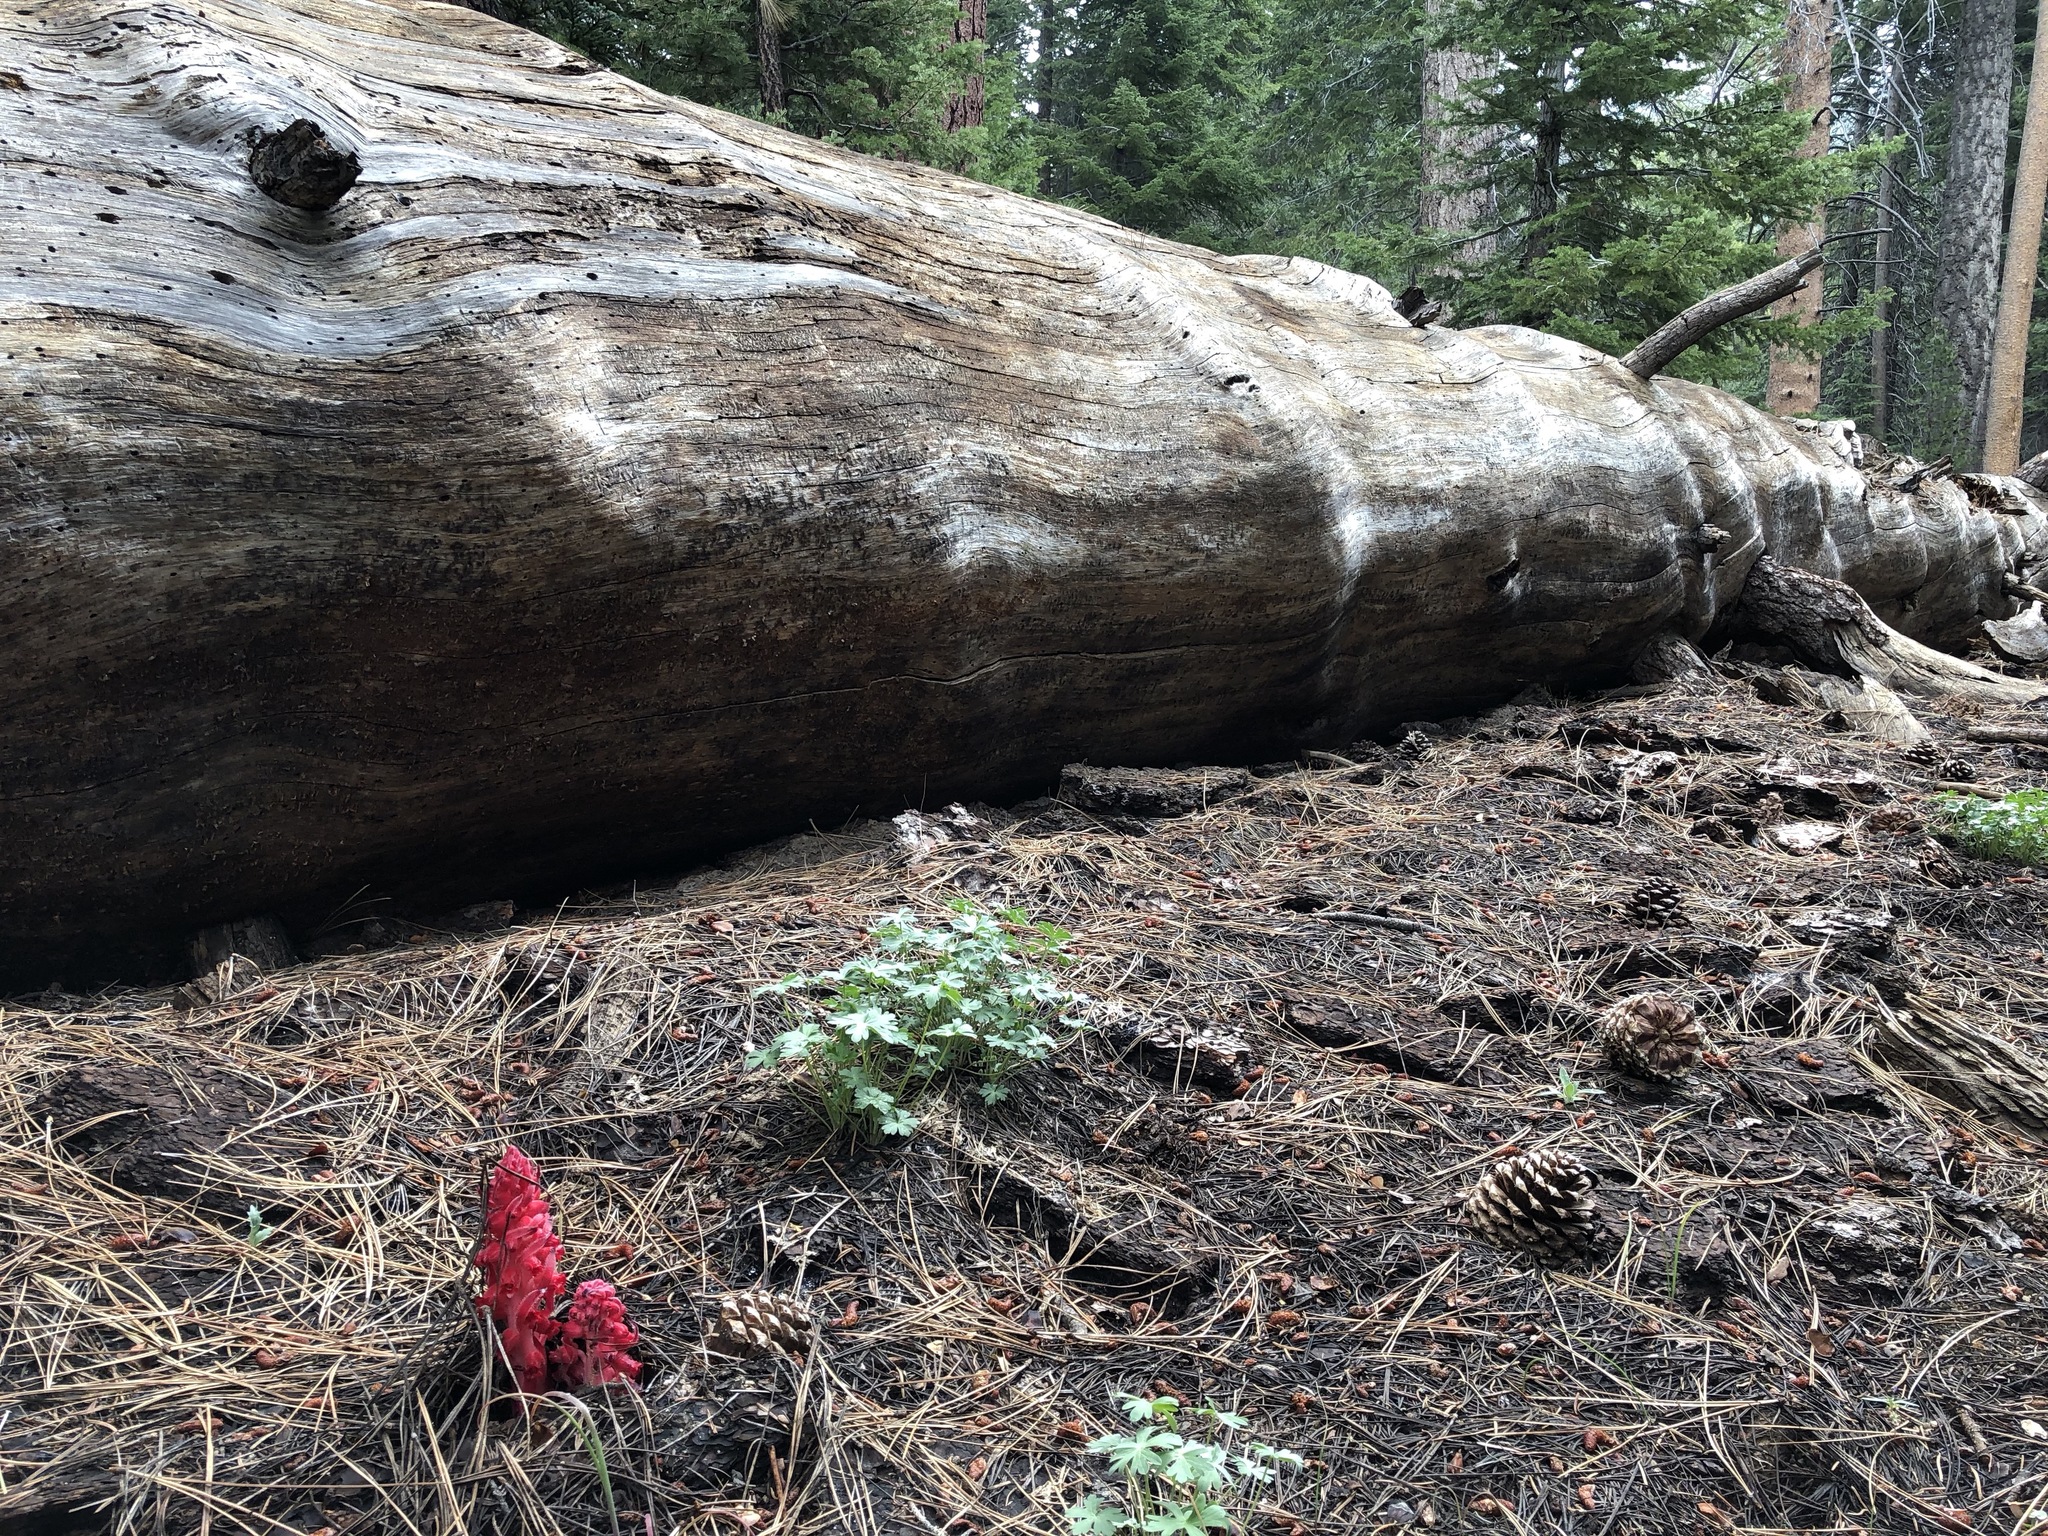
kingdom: Plantae
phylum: Tracheophyta
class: Magnoliopsida
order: Ericales
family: Ericaceae
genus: Sarcodes
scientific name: Sarcodes sanguinea
